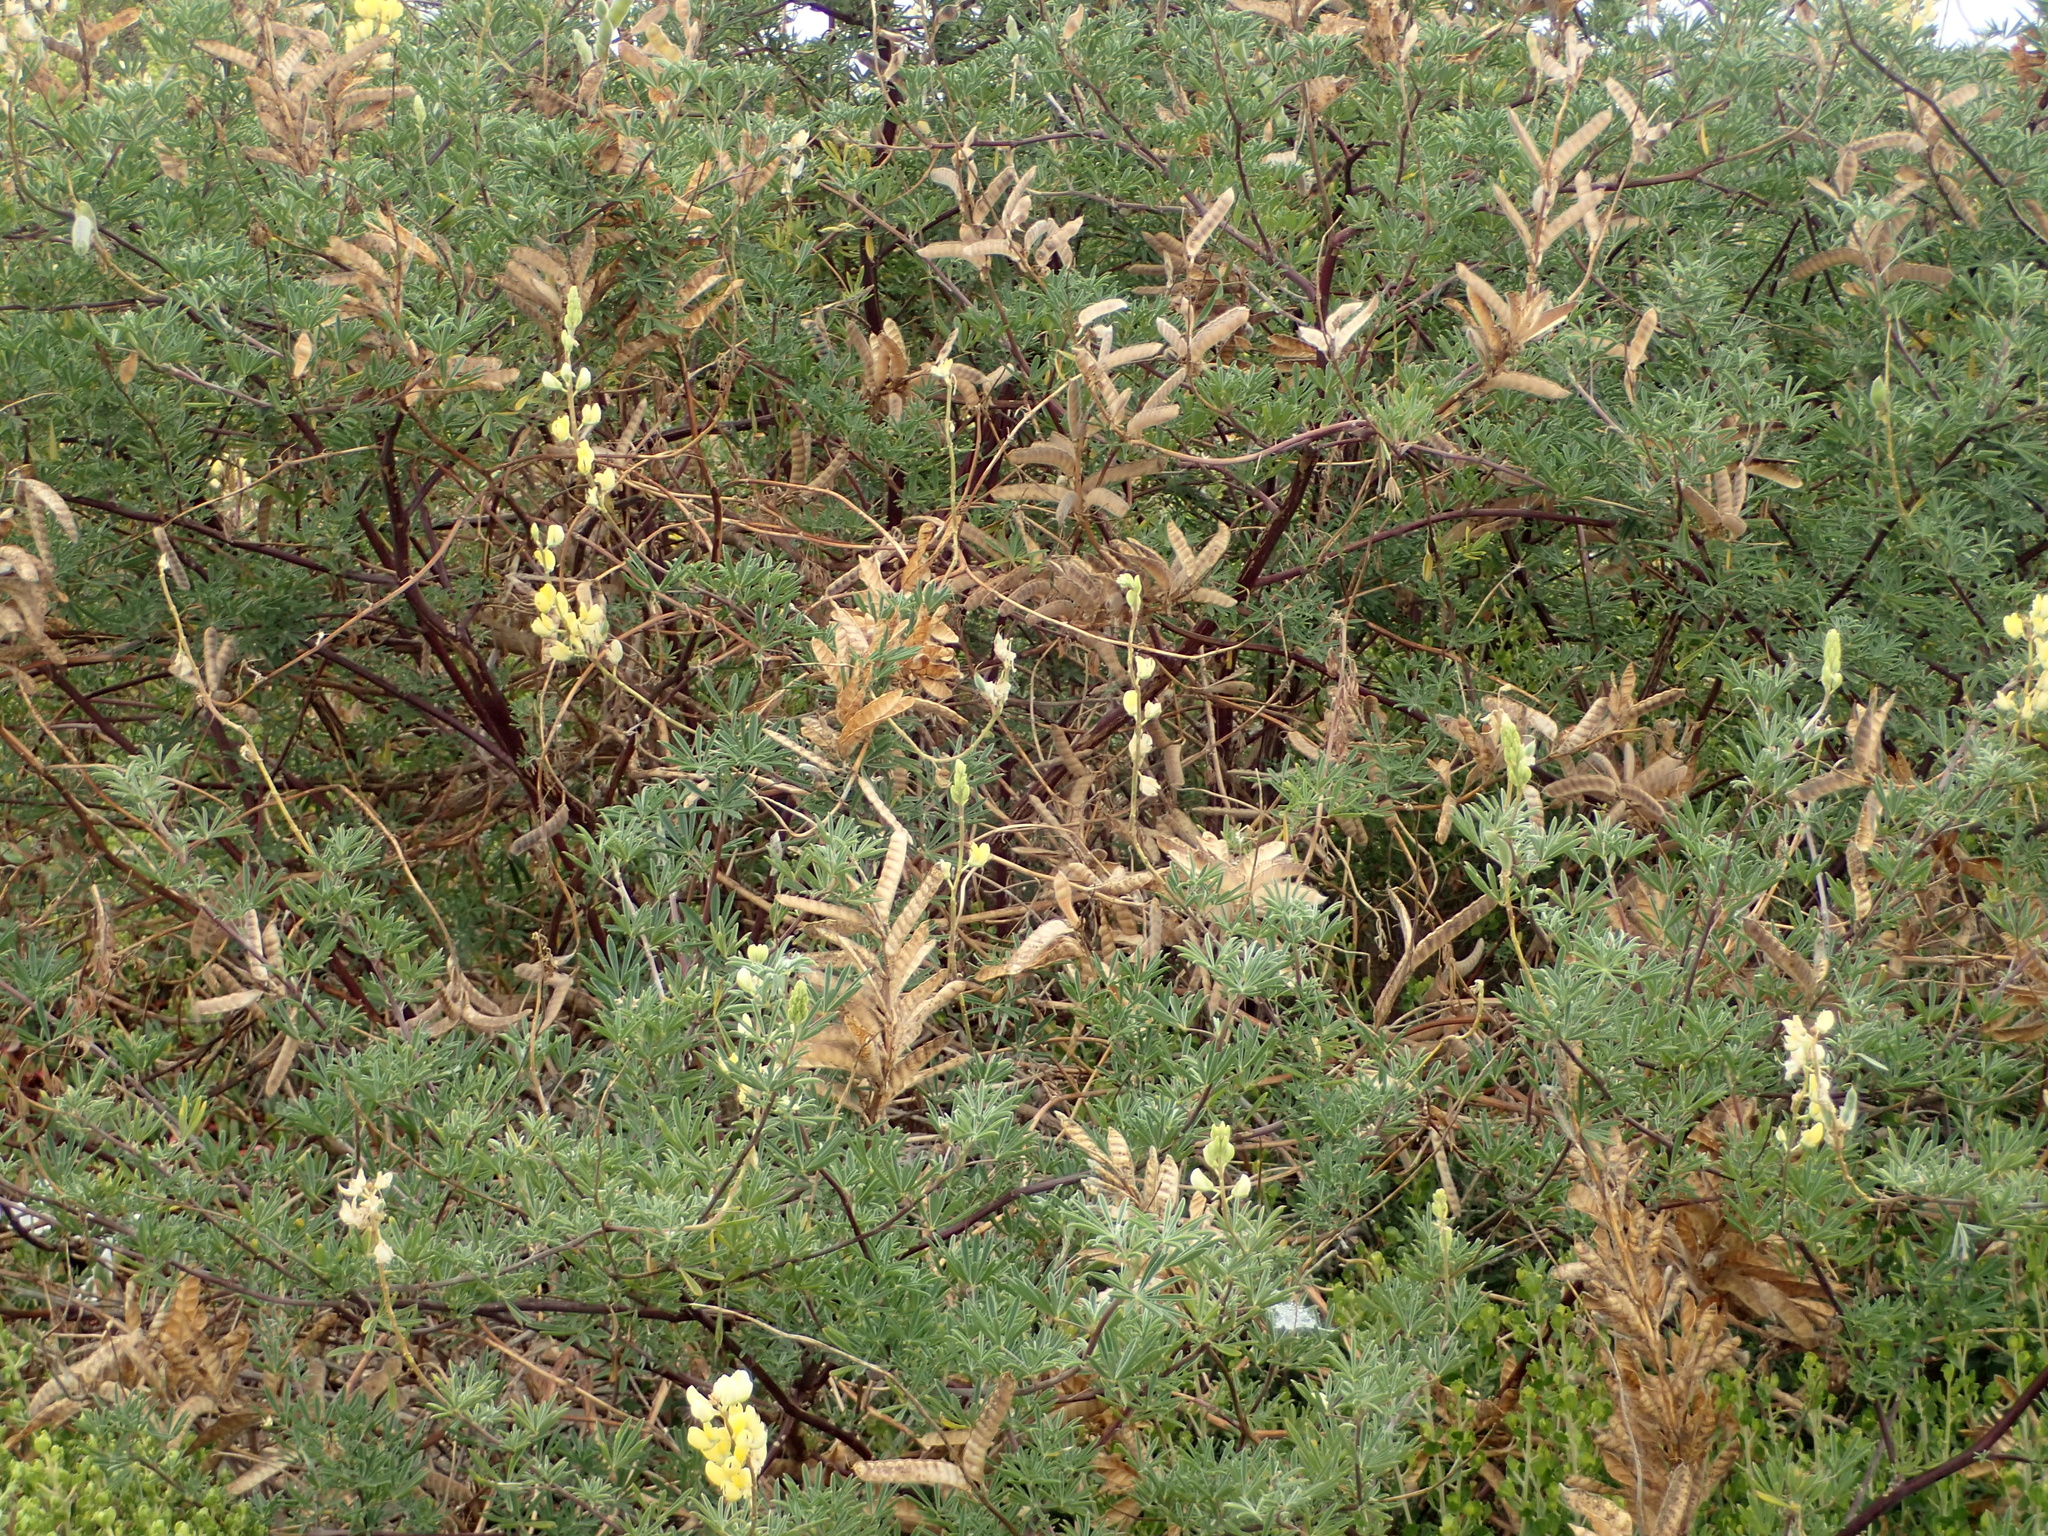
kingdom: Plantae
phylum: Tracheophyta
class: Magnoliopsida
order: Fabales
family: Fabaceae
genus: Lupinus
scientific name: Lupinus arboreus
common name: Yellow bush lupine
